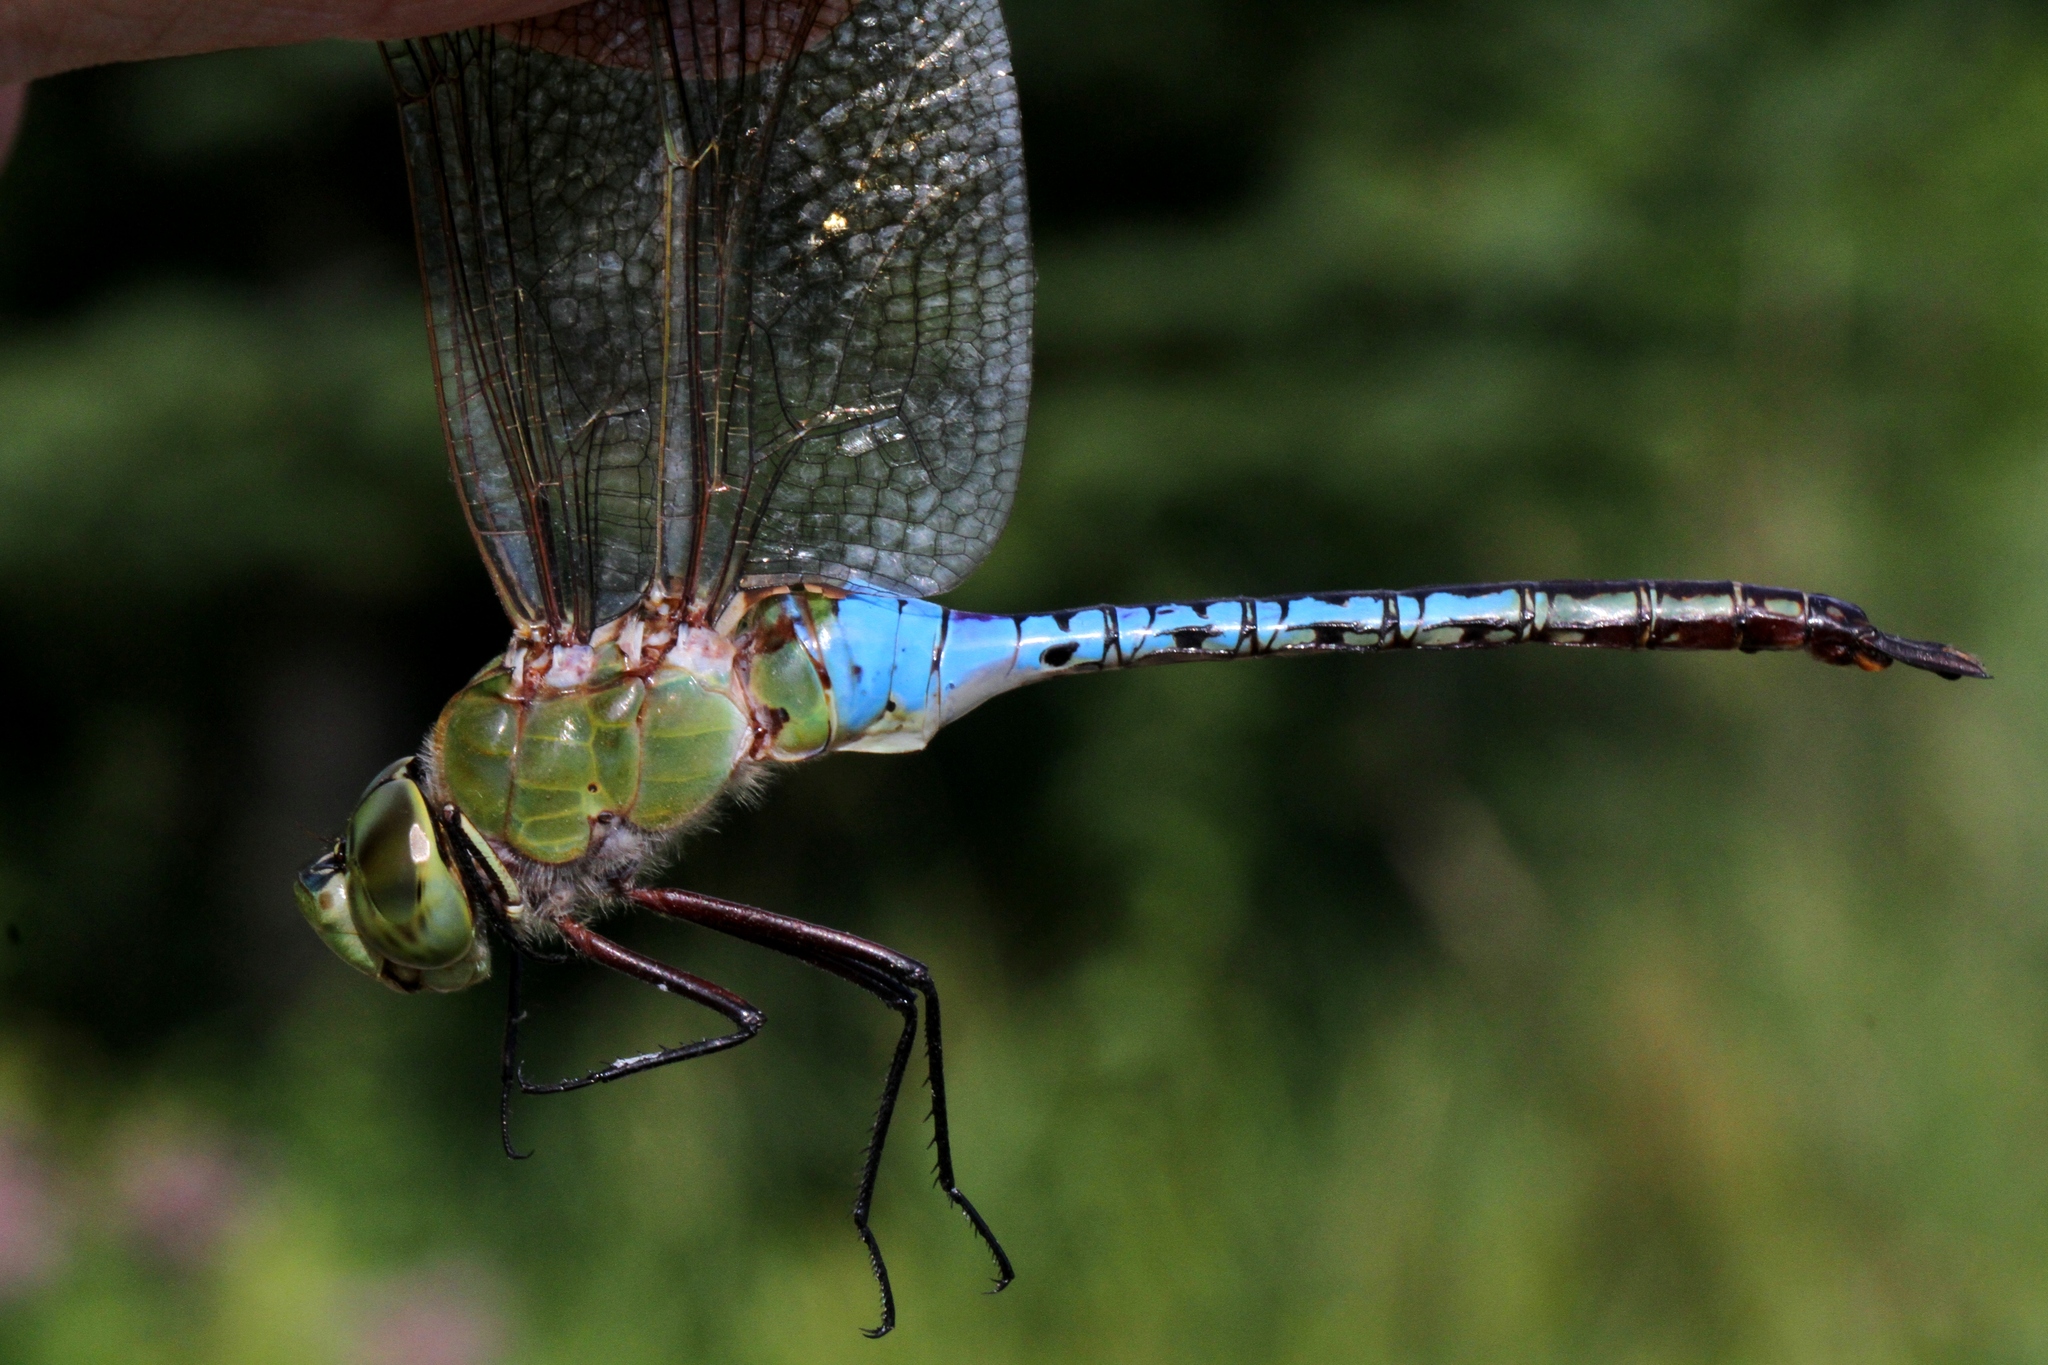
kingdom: Animalia
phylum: Arthropoda
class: Insecta
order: Odonata
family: Aeshnidae
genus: Anax
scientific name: Anax junius
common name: Common green darner
